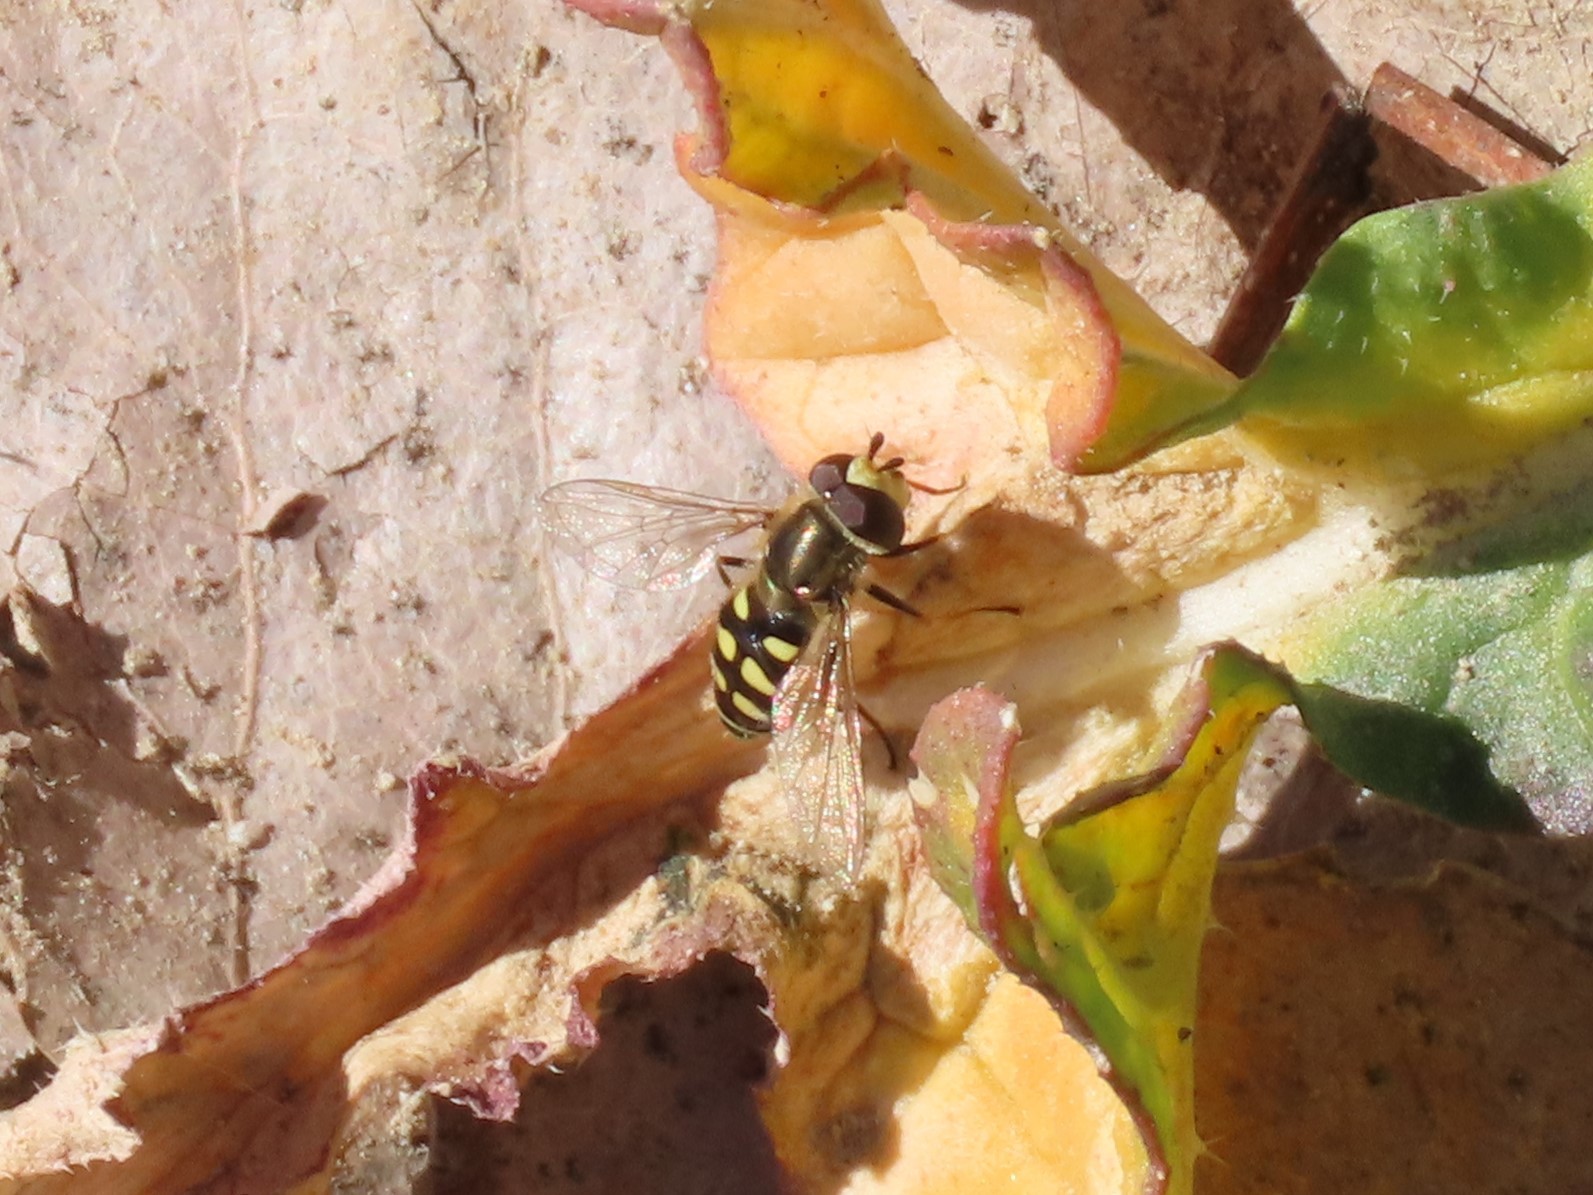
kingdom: Animalia
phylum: Arthropoda
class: Insecta
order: Diptera
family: Syrphidae
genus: Eupeodes
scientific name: Eupeodes corollae
